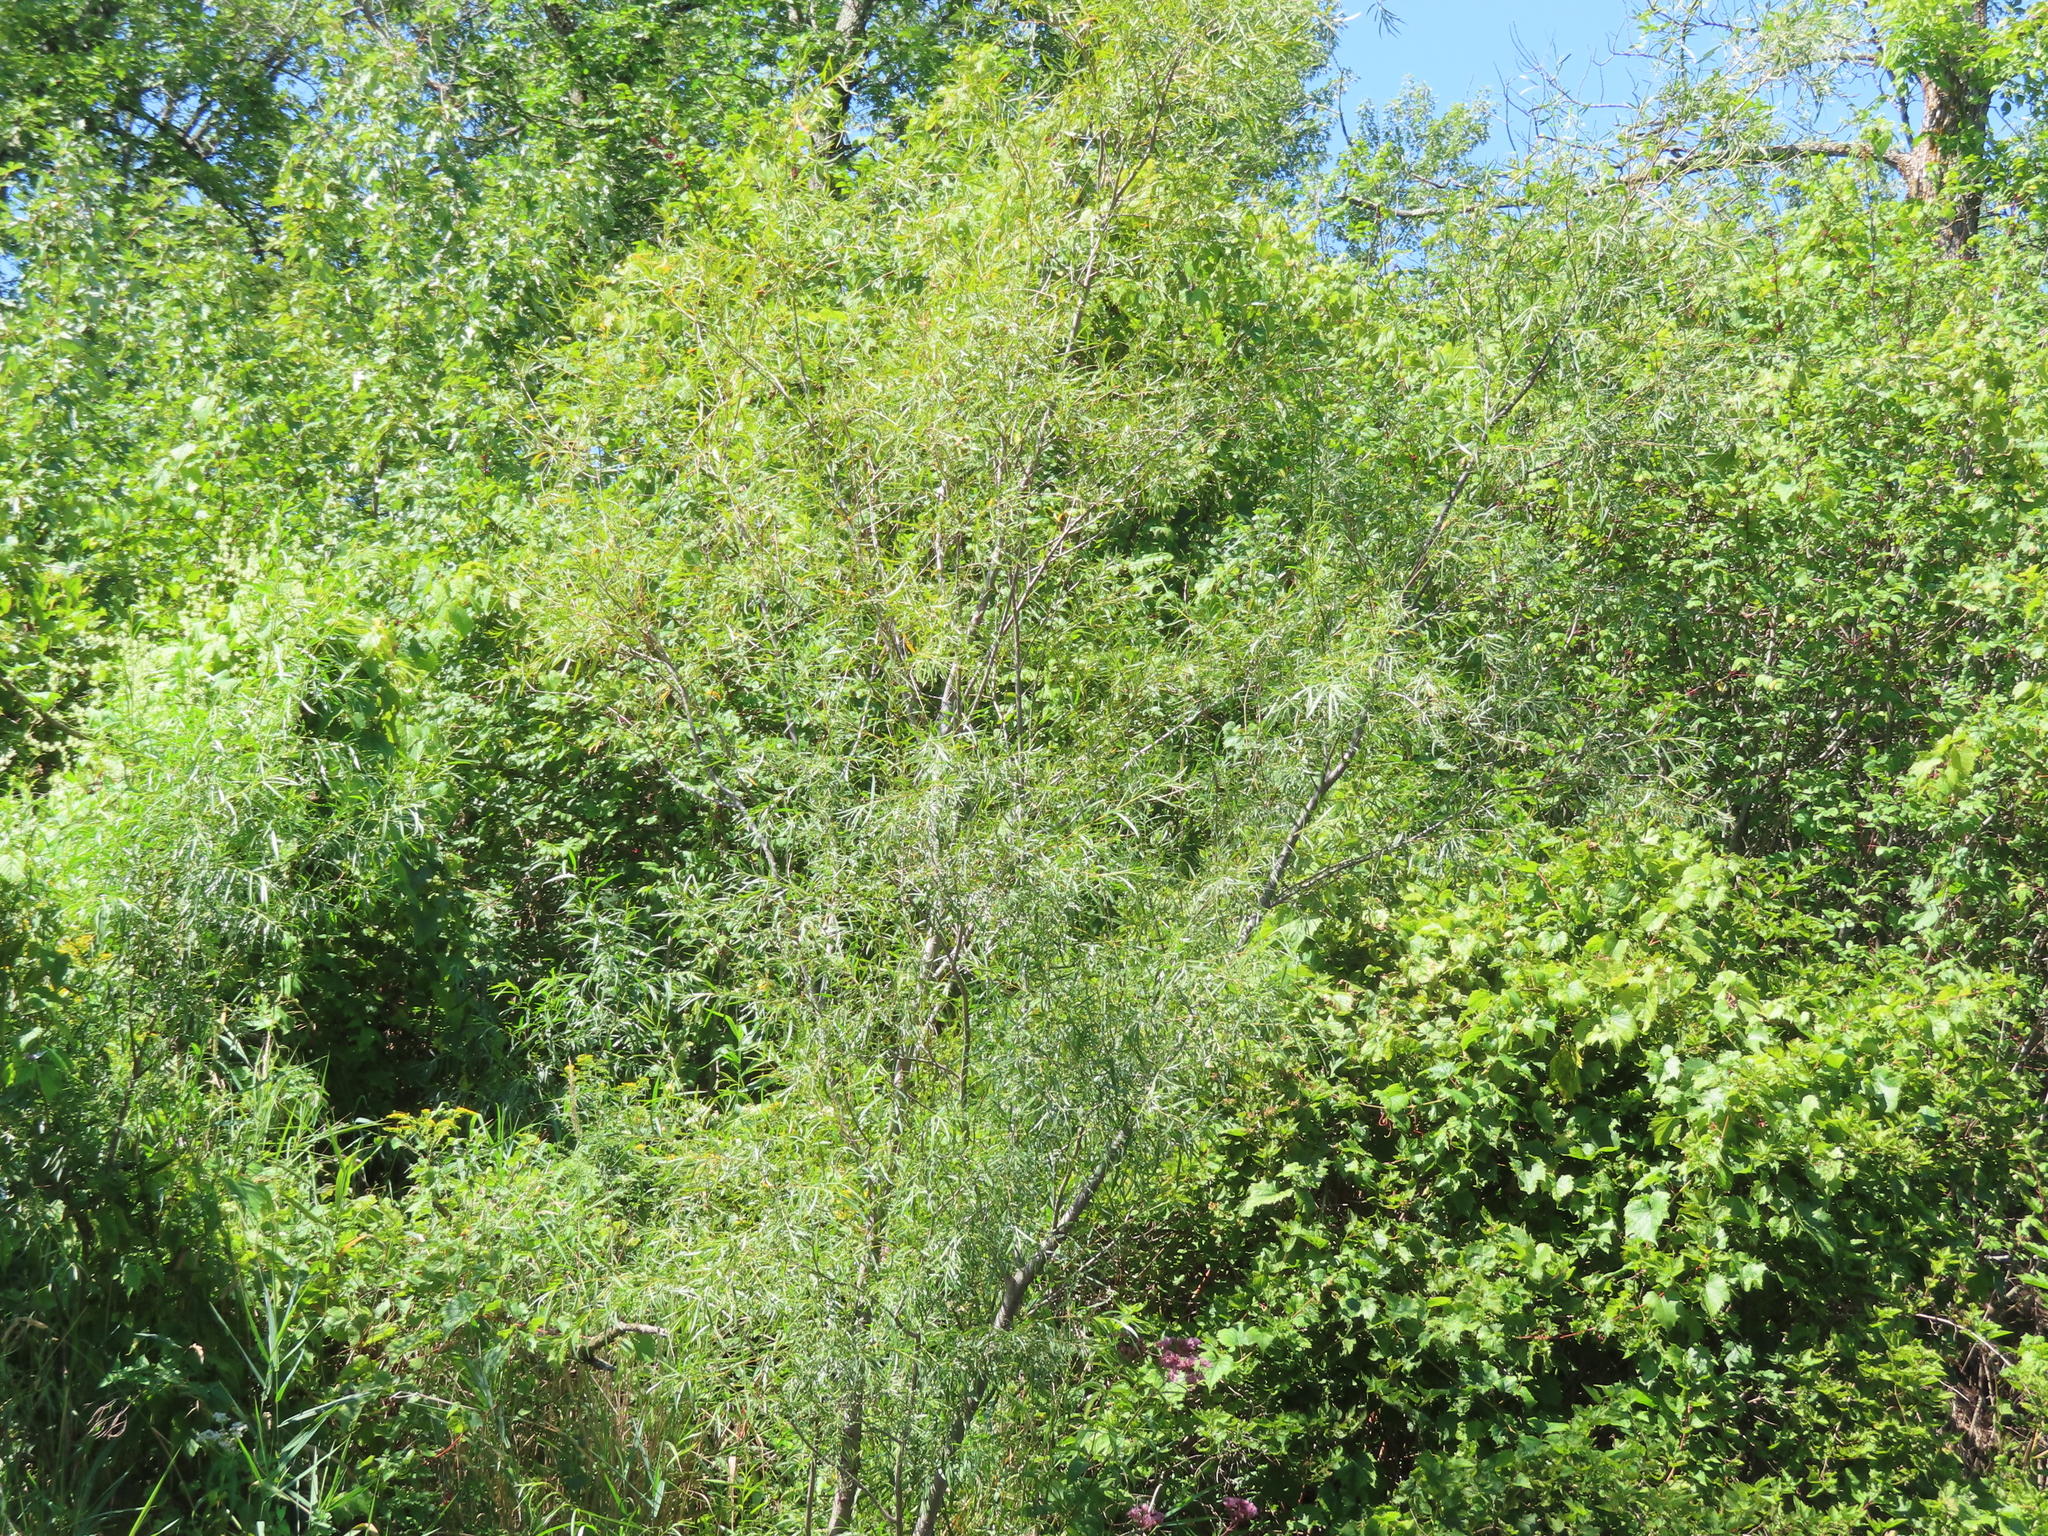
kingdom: Plantae
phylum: Tracheophyta
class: Magnoliopsida
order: Malpighiales
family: Salicaceae
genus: Salix
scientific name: Salix interior
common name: Sandbar willow
